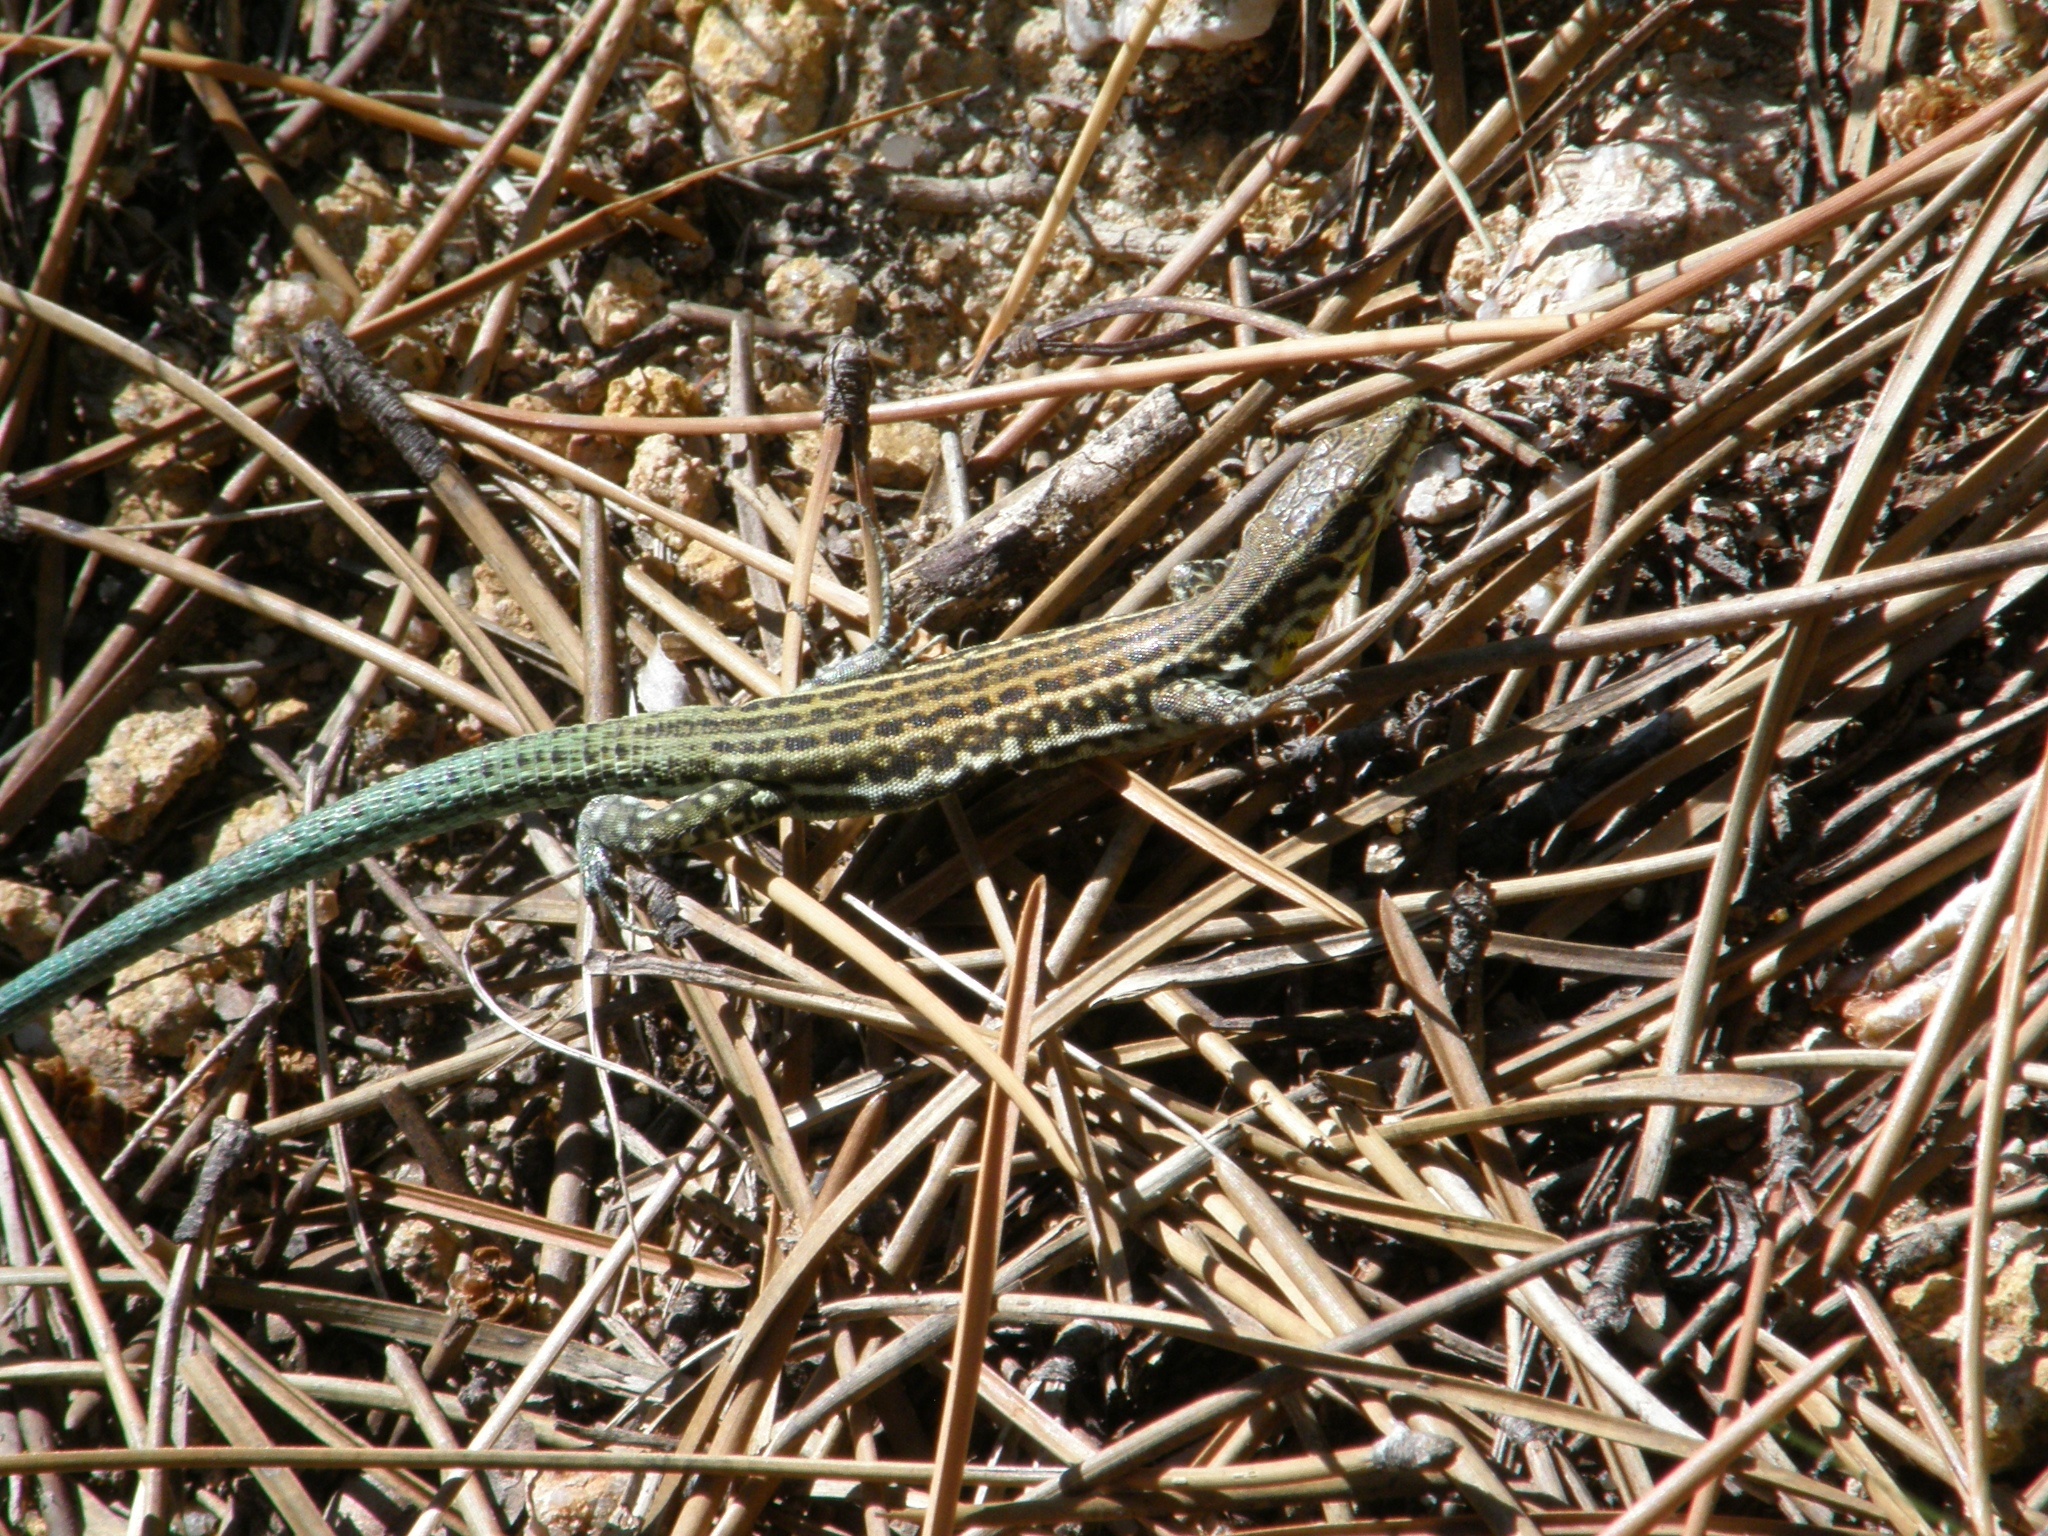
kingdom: Animalia
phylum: Chordata
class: Squamata
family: Lacertidae
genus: Podarcis
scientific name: Podarcis tiliguerta
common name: Tyrrhenian wall lizard
